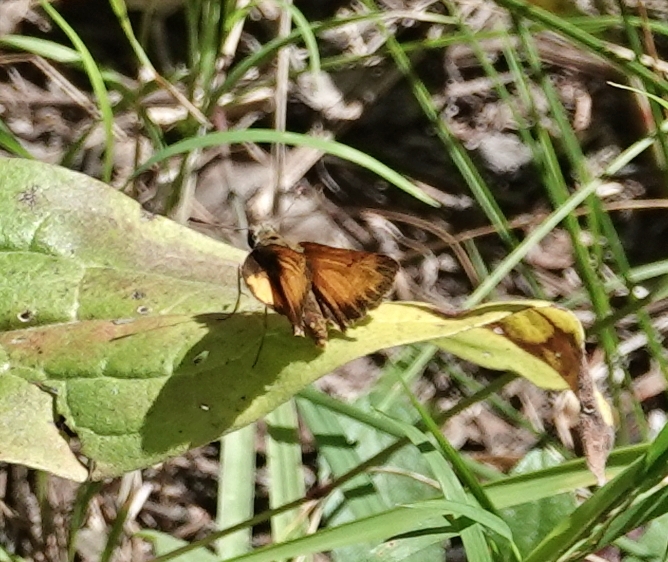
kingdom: Animalia
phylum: Arthropoda
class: Insecta
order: Lepidoptera
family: Hesperiidae
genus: Lon
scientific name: Lon taxiles
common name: Taxiles skipper
